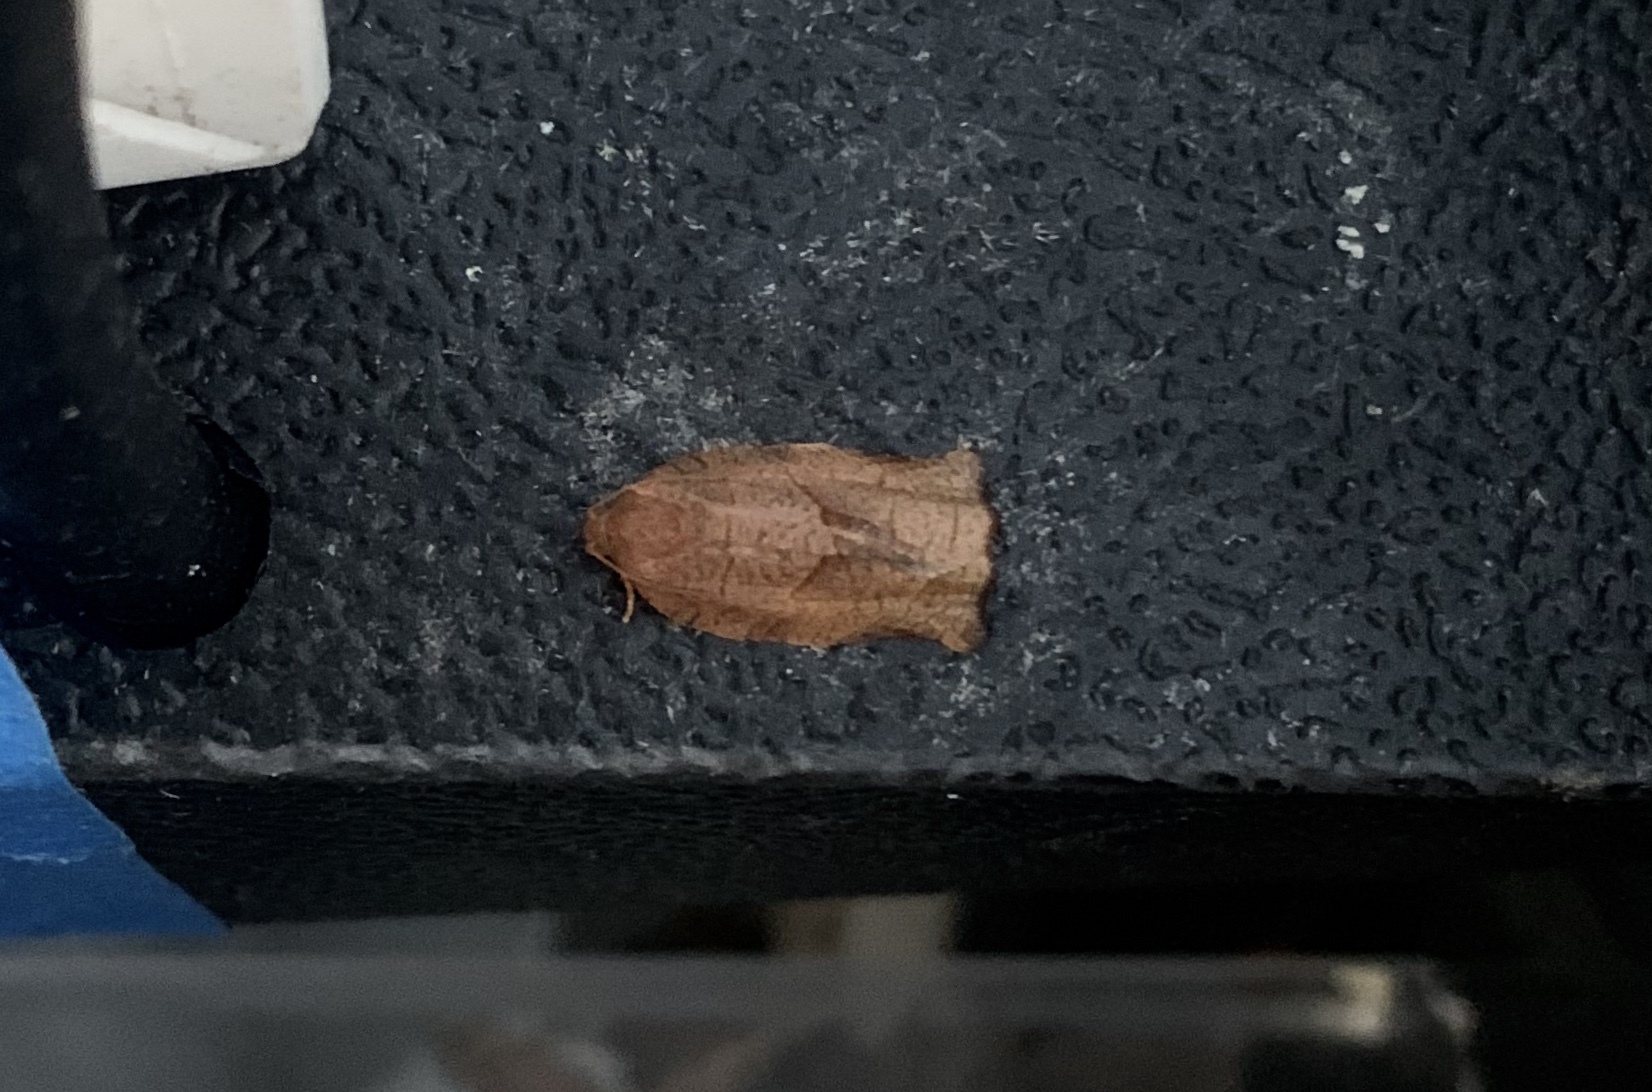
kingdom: Animalia
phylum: Arthropoda
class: Insecta
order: Lepidoptera
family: Tortricidae
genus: Choristoneura
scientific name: Choristoneura rosaceana
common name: Oblique-banded leafroller moth
